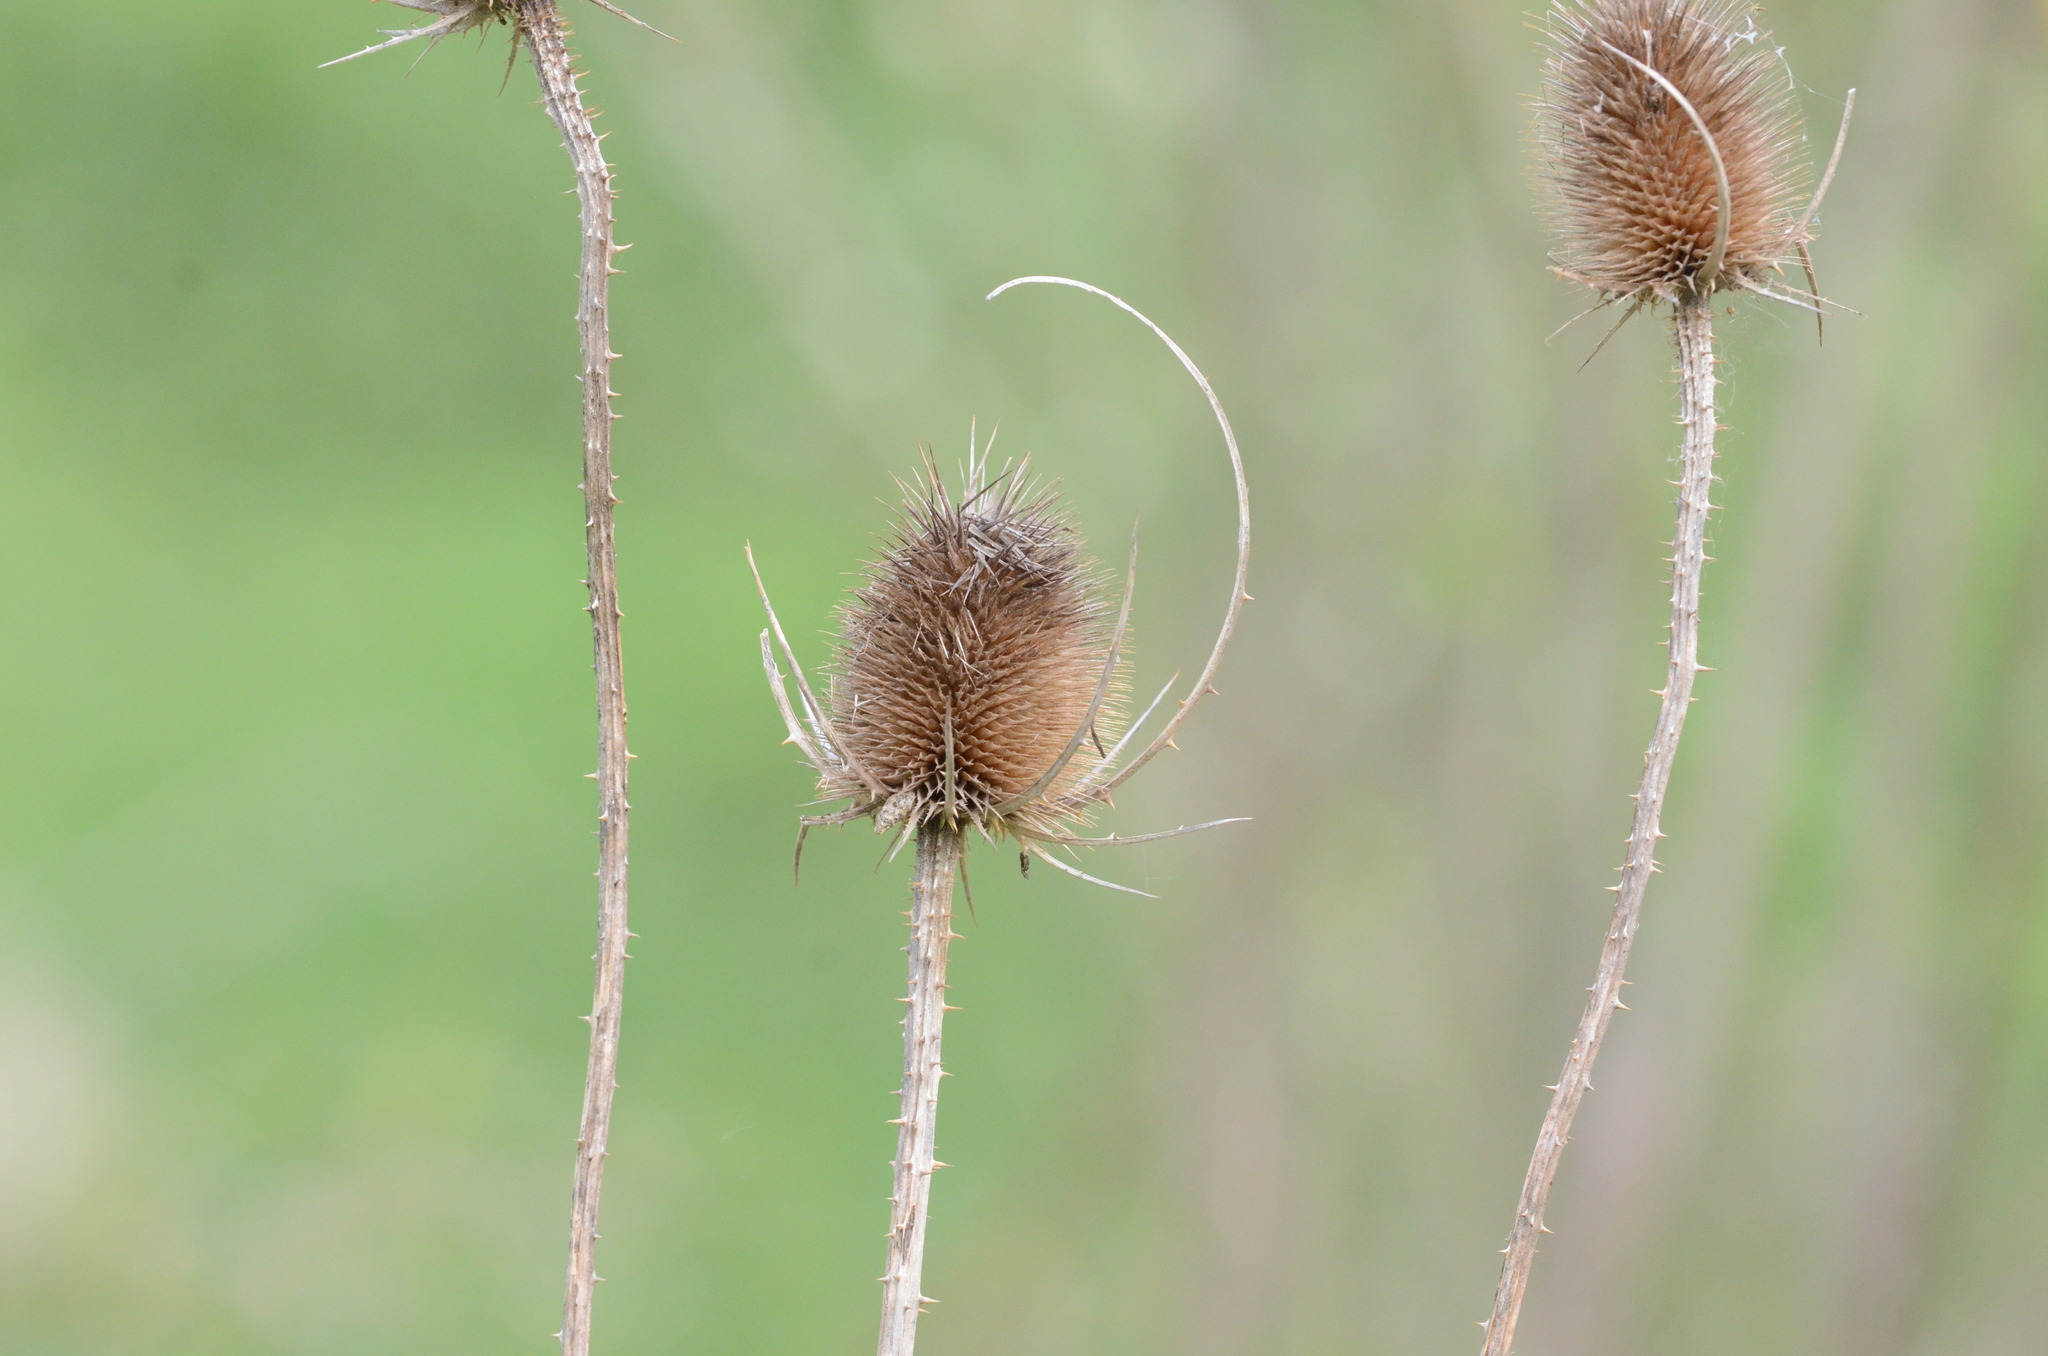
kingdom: Plantae
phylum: Tracheophyta
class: Magnoliopsida
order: Dipsacales
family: Caprifoliaceae
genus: Dipsacus
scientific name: Dipsacus fullonum
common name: Teasel
